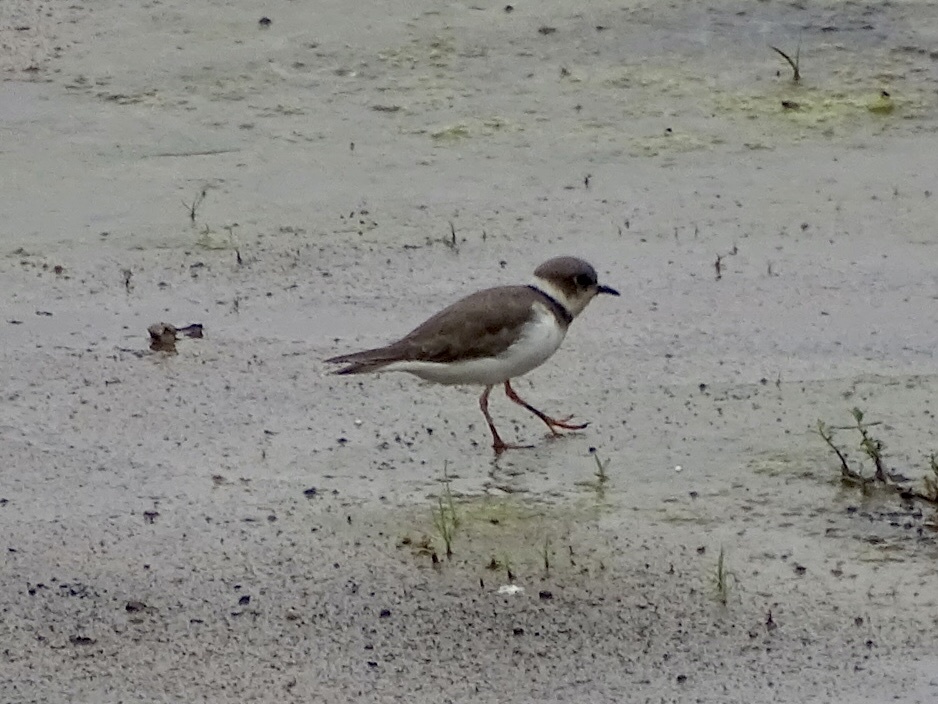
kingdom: Animalia
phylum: Chordata
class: Aves
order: Charadriiformes
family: Charadriidae
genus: Charadrius
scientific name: Charadrius dubius
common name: Little ringed plover
